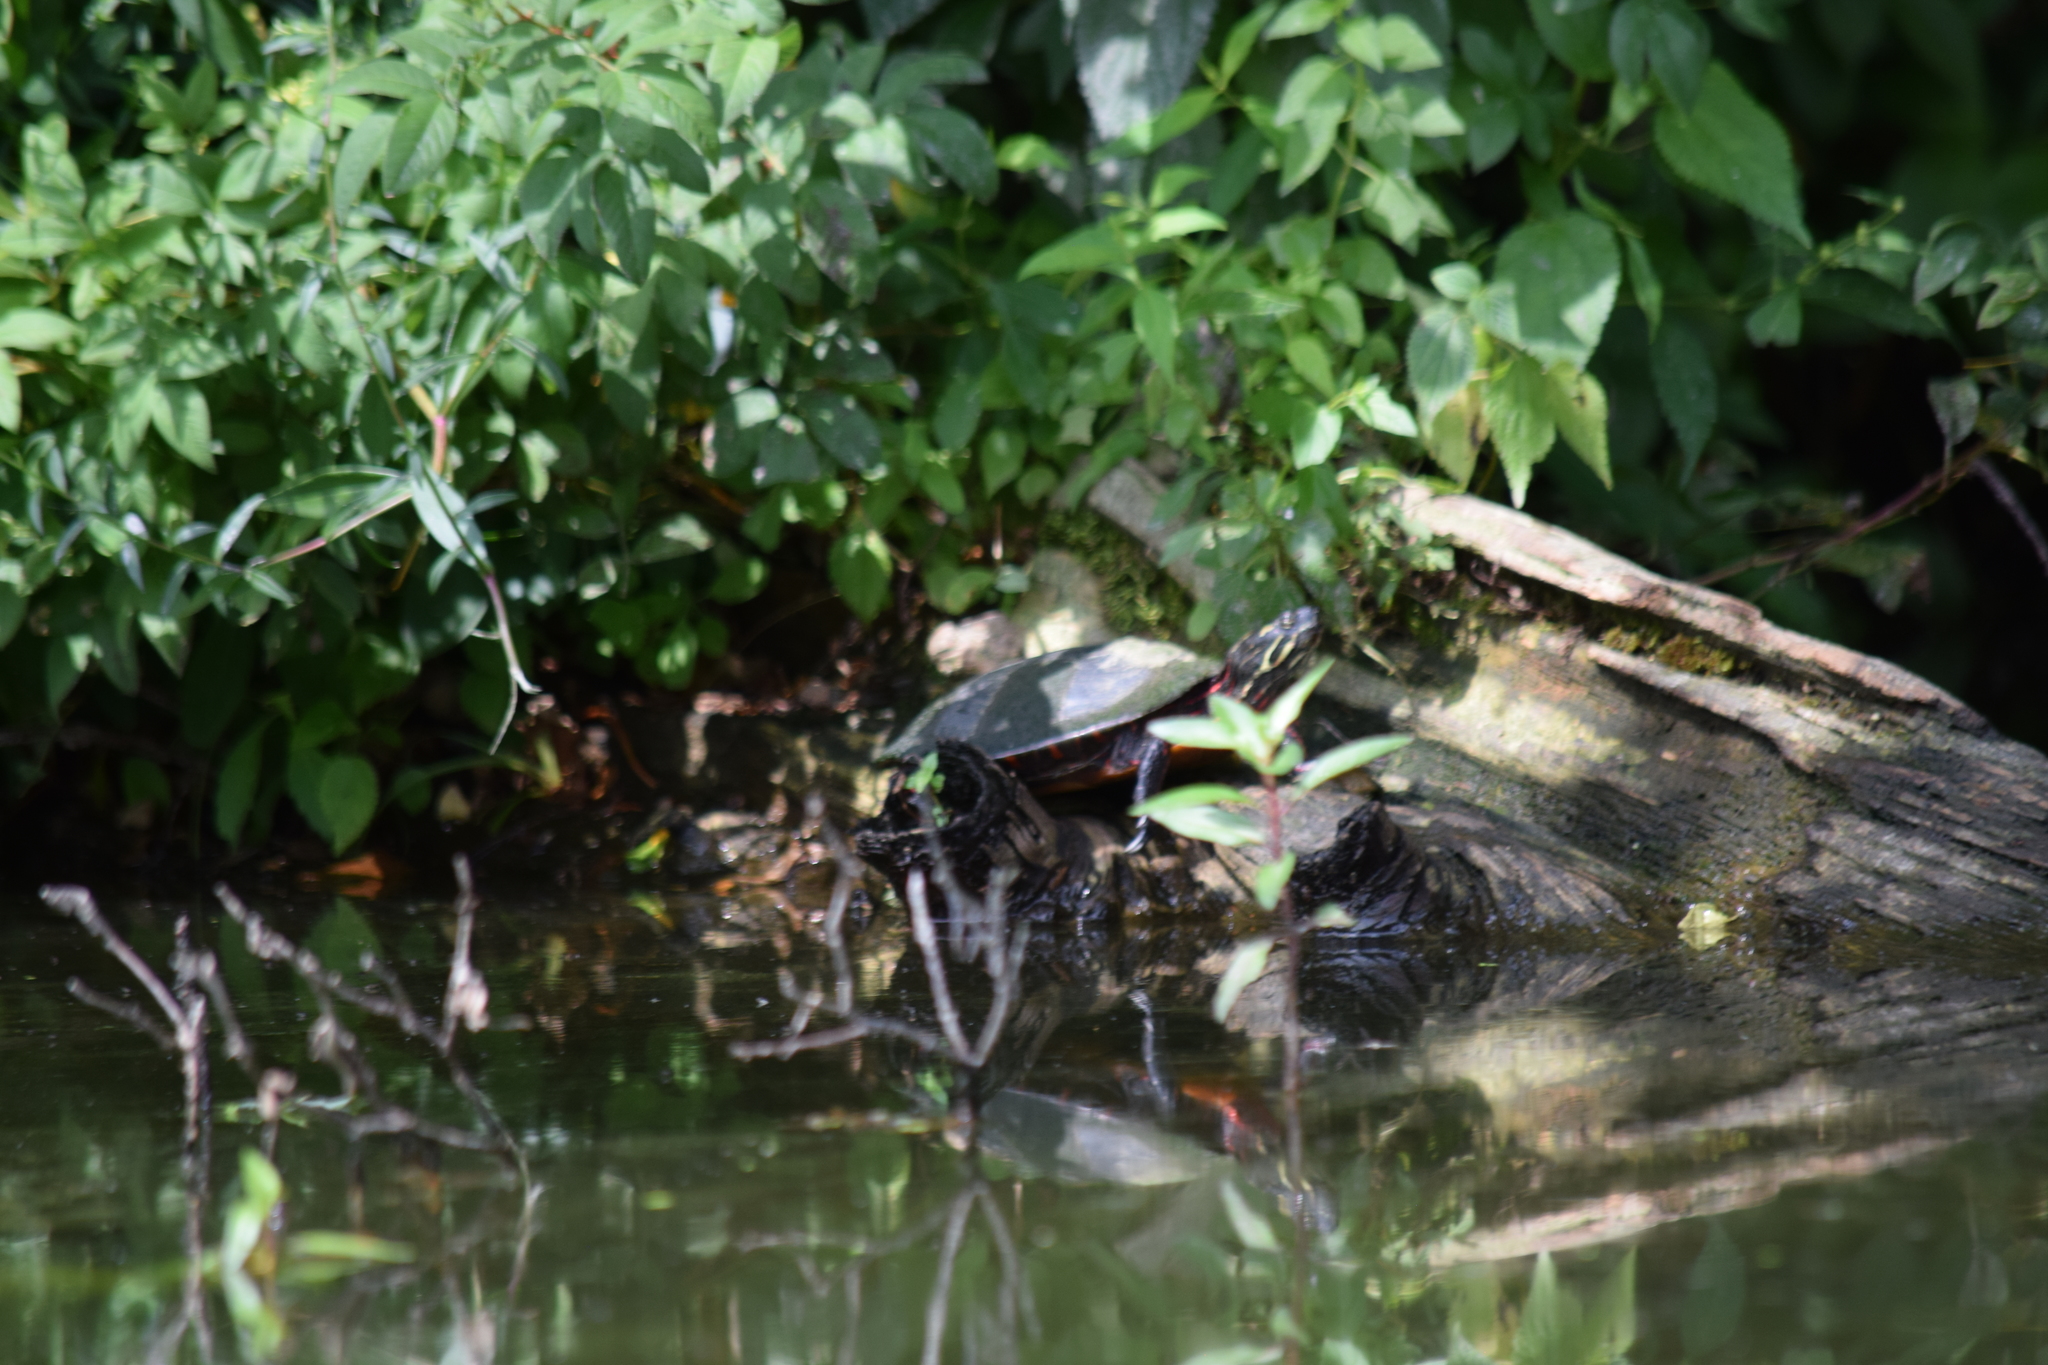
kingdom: Animalia
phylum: Chordata
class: Testudines
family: Emydidae
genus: Chrysemys
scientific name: Chrysemys picta
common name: Painted turtle
